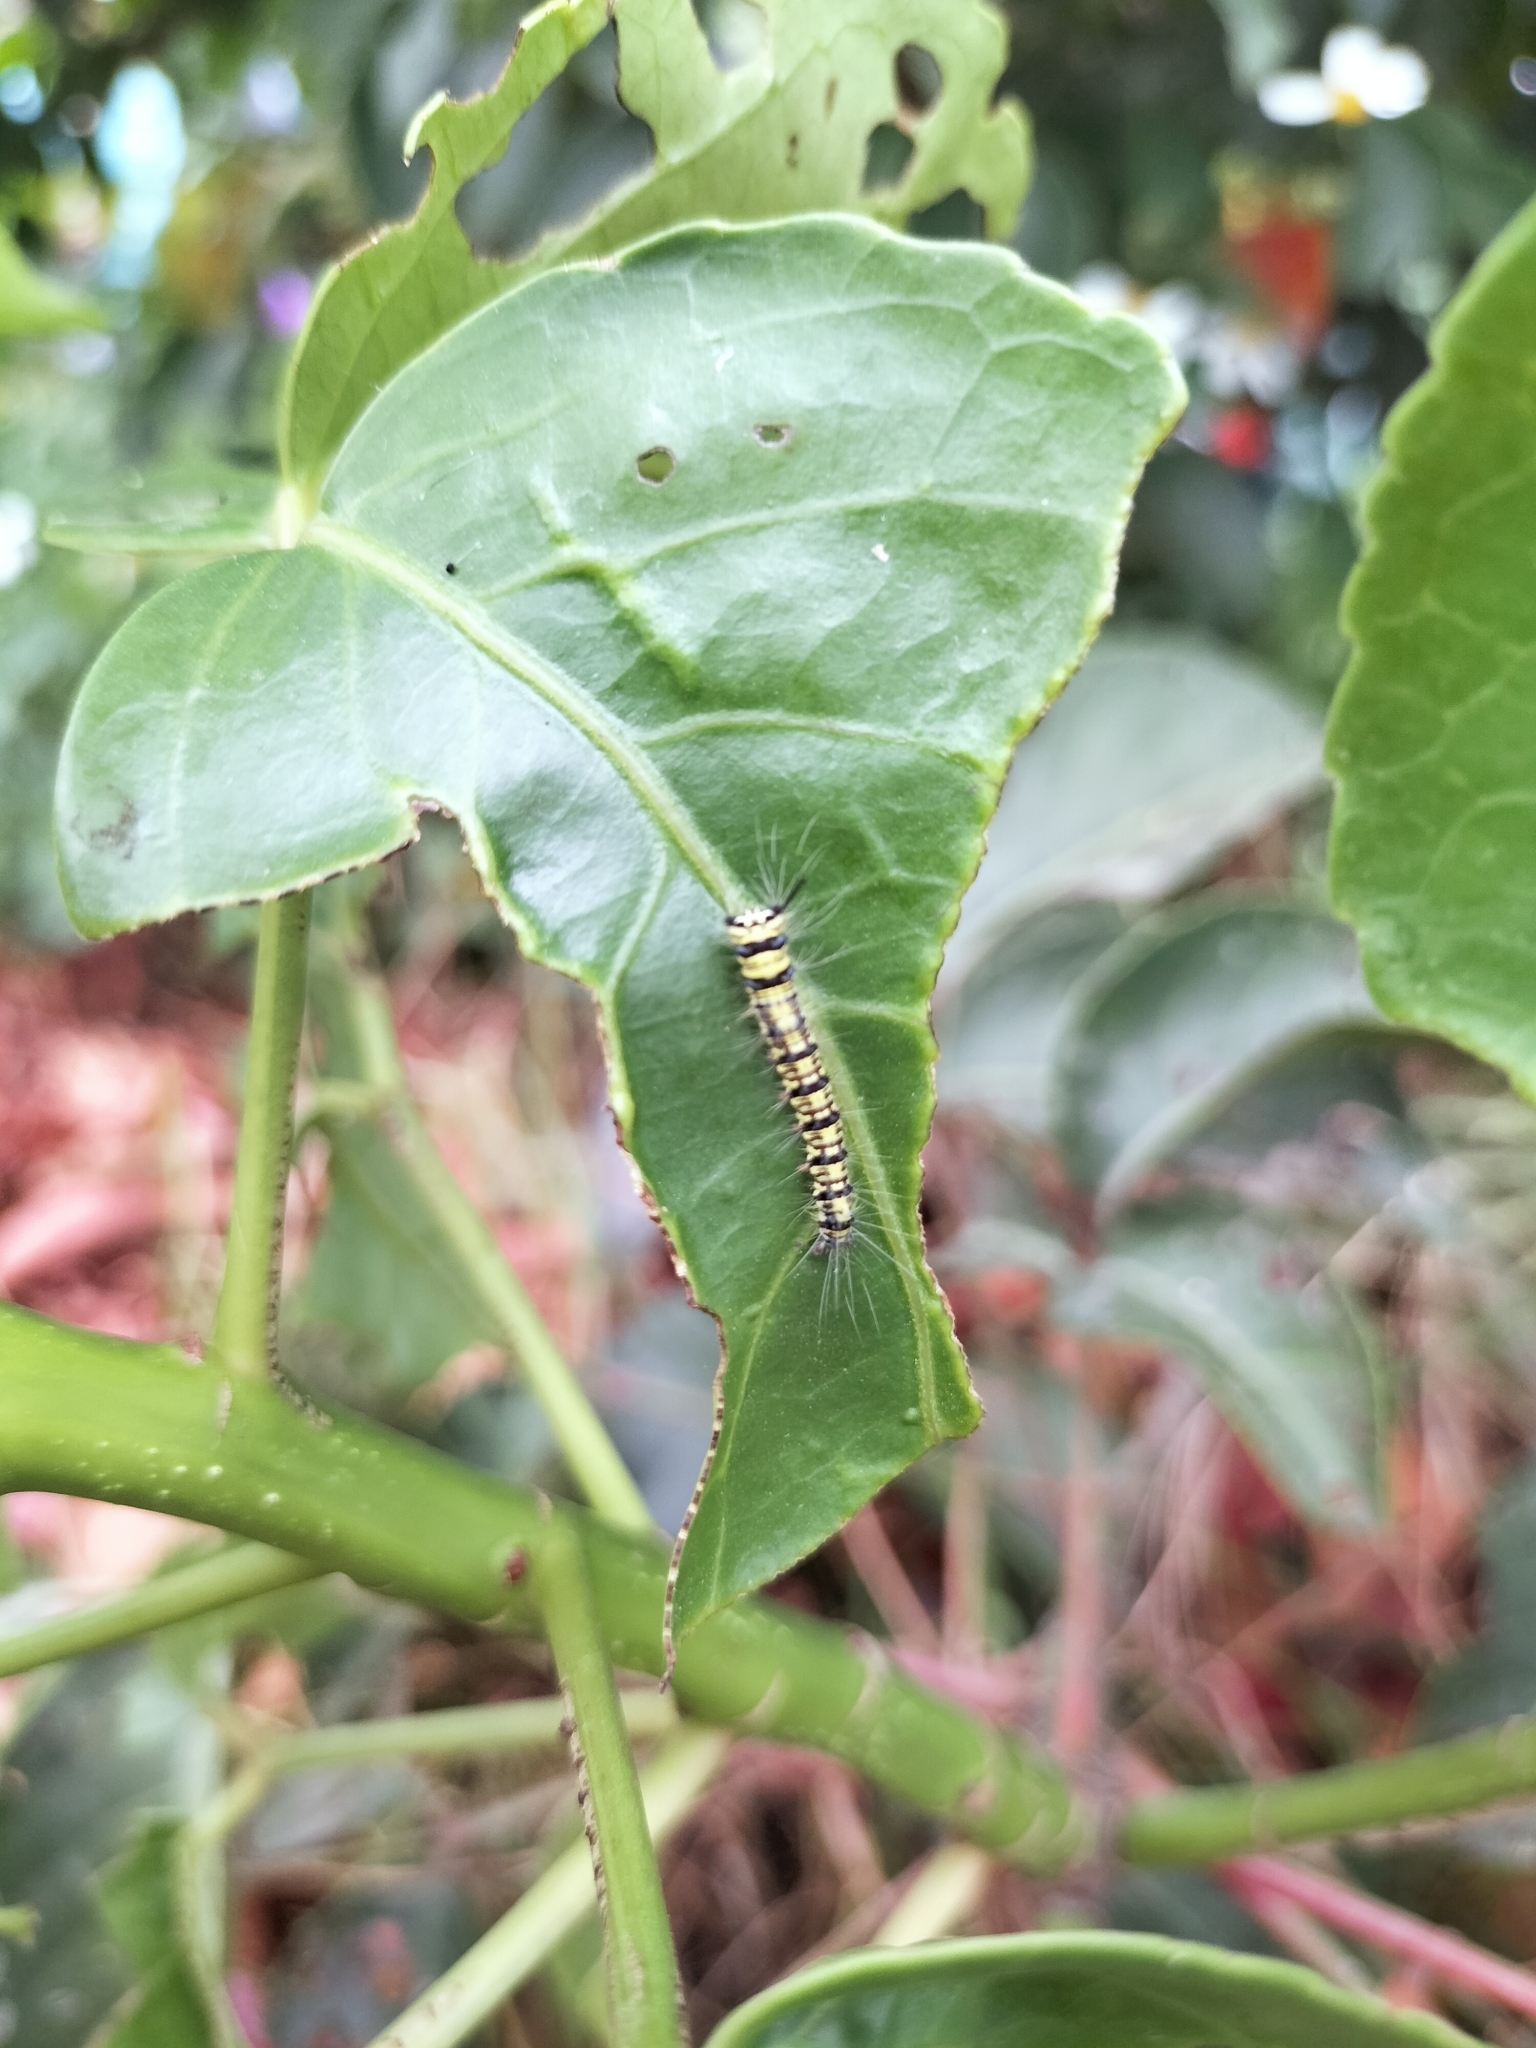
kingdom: Animalia
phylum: Arthropoda
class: Insecta
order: Lepidoptera
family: Lasiocampidae
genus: Trabala
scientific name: Trabala vishnou
